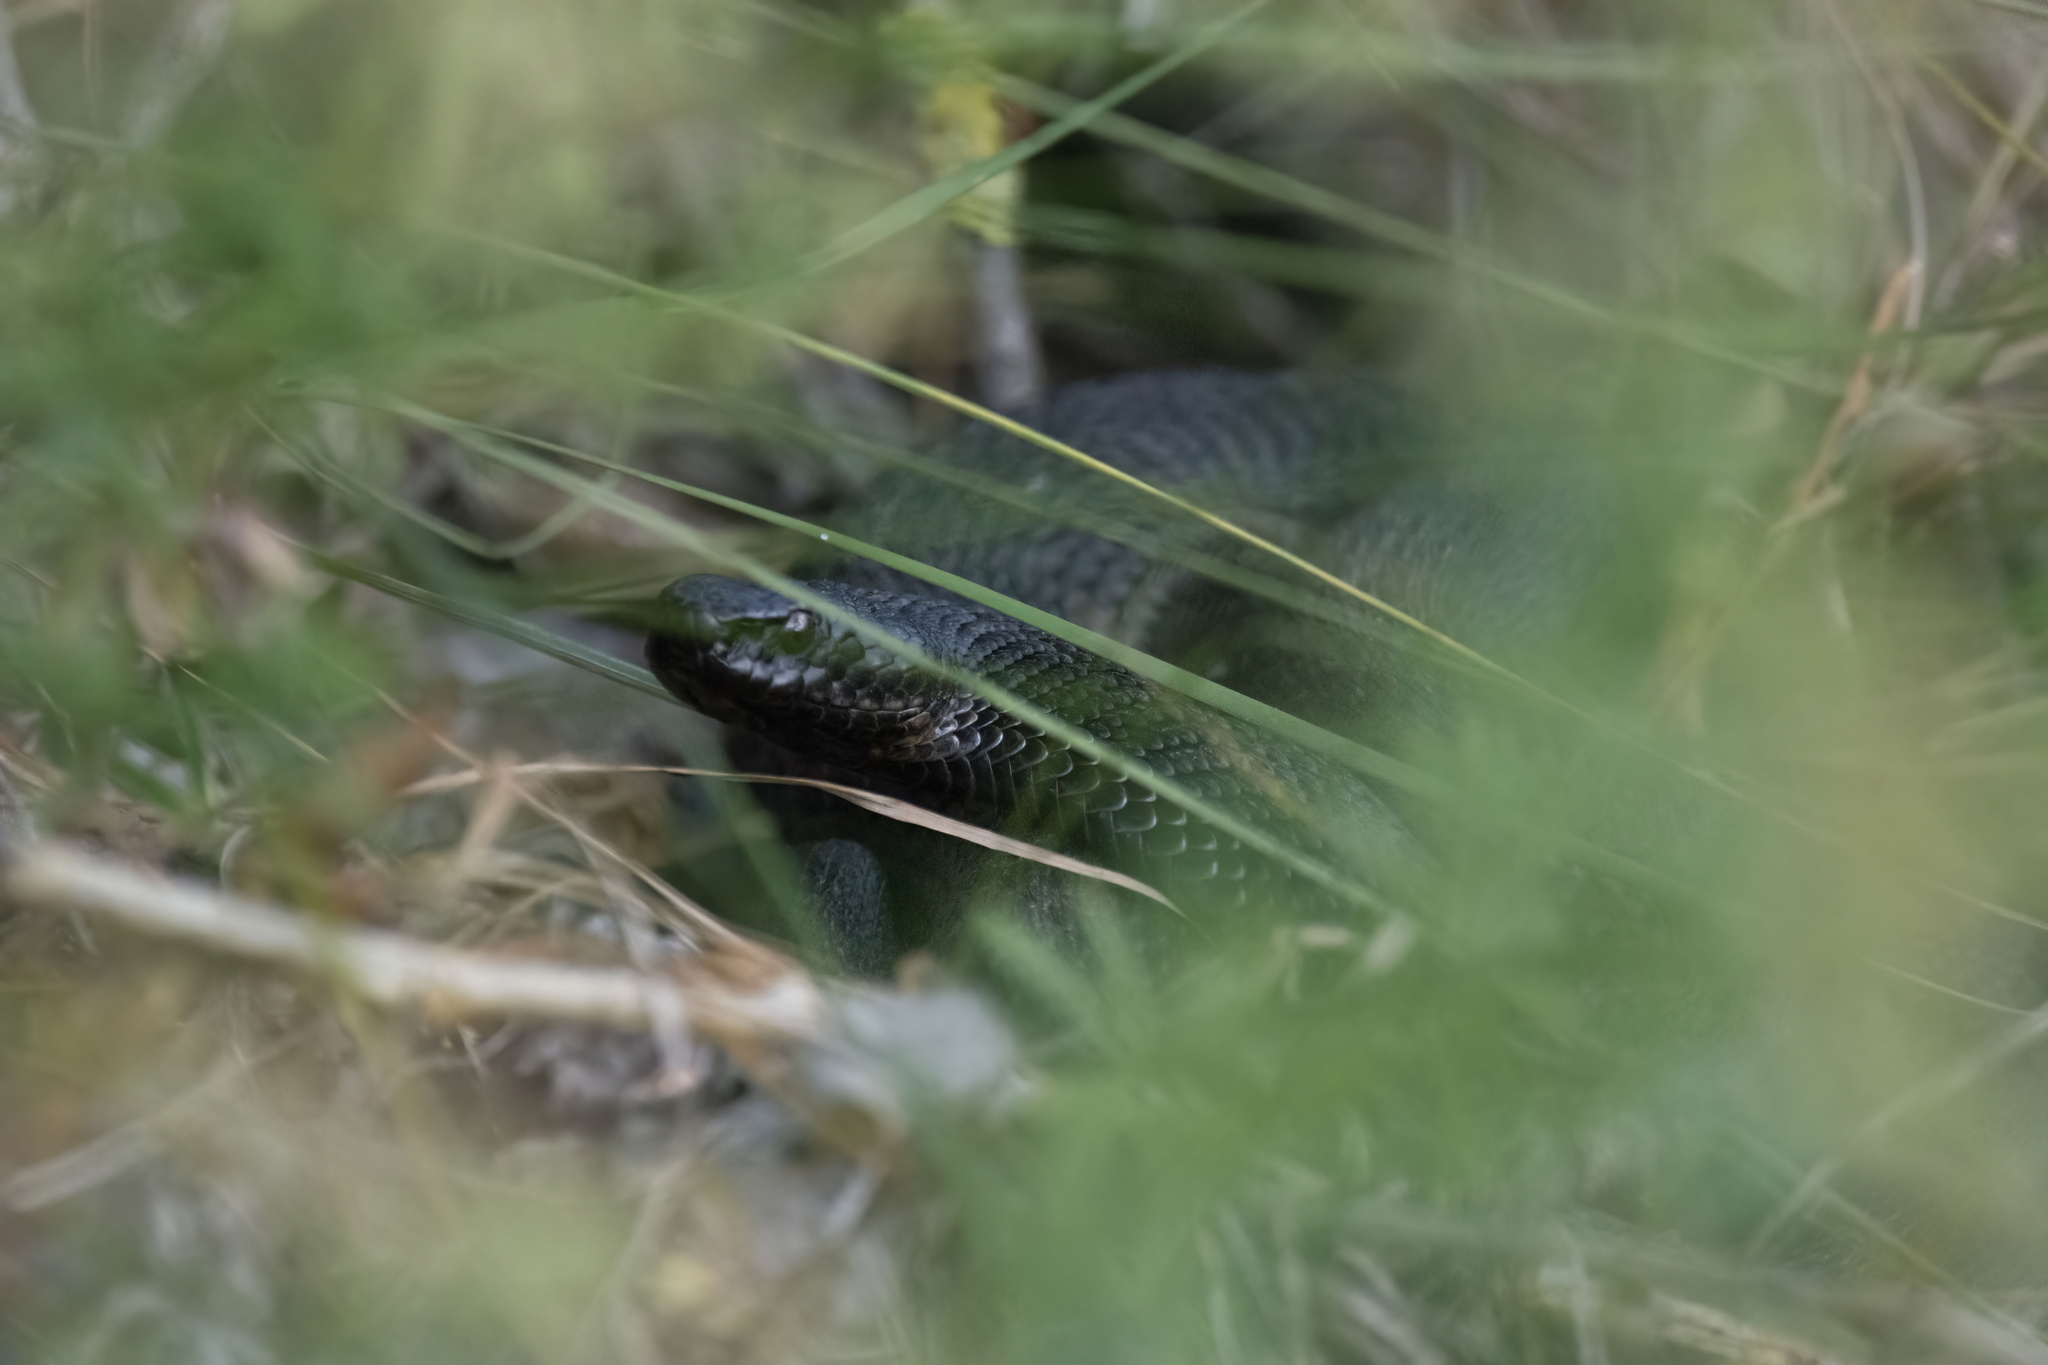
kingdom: Animalia
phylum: Chordata
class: Squamata
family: Viperidae
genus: Vipera
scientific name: Vipera berus
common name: Adder
